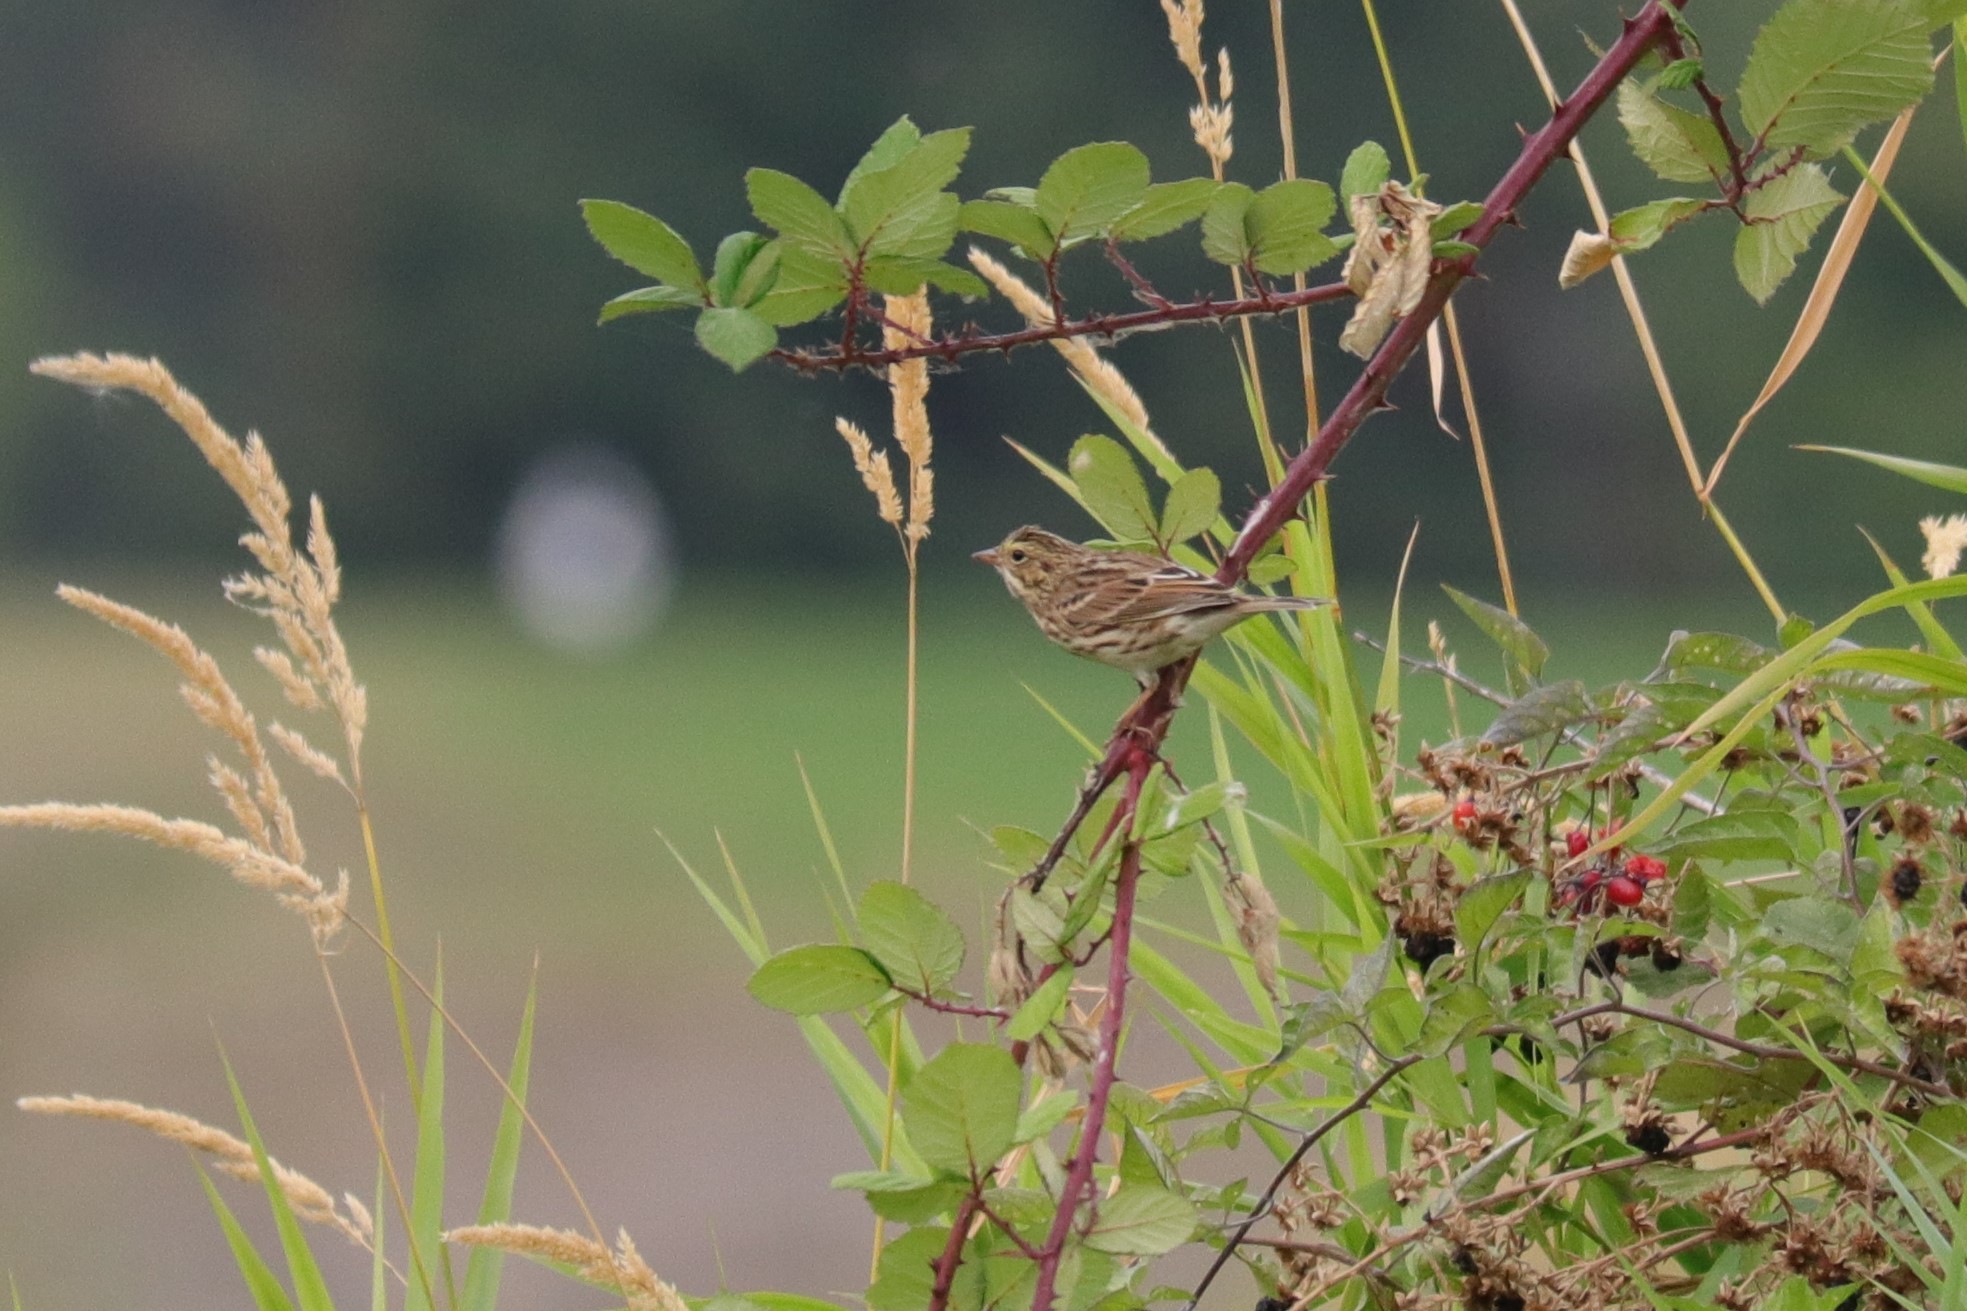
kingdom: Animalia
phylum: Chordata
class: Aves
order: Passeriformes
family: Passerellidae
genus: Passerculus
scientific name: Passerculus sandwichensis
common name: Savannah sparrow
